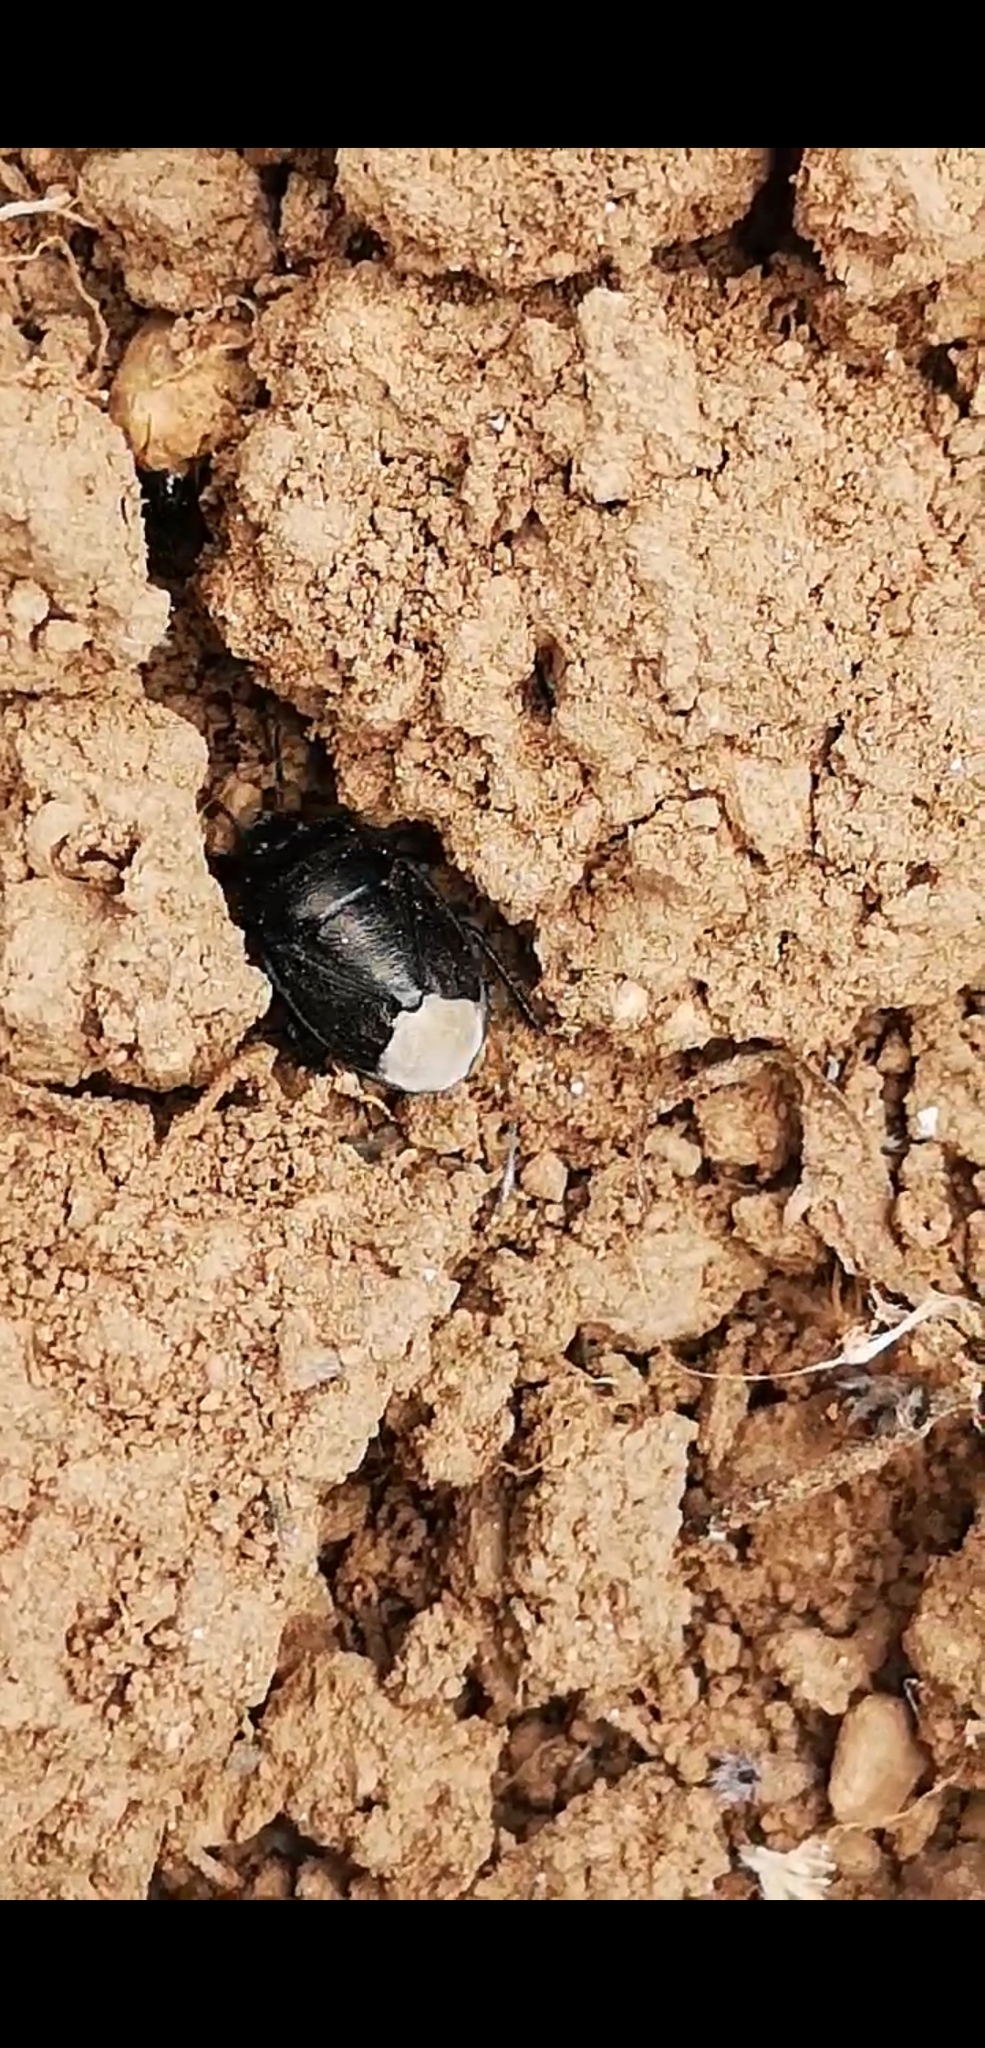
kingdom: Animalia
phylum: Arthropoda
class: Insecta
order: Hemiptera
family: Cydnidae
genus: Sehirus
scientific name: Sehirus luctuosus
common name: Forget-me-not shieldbug
